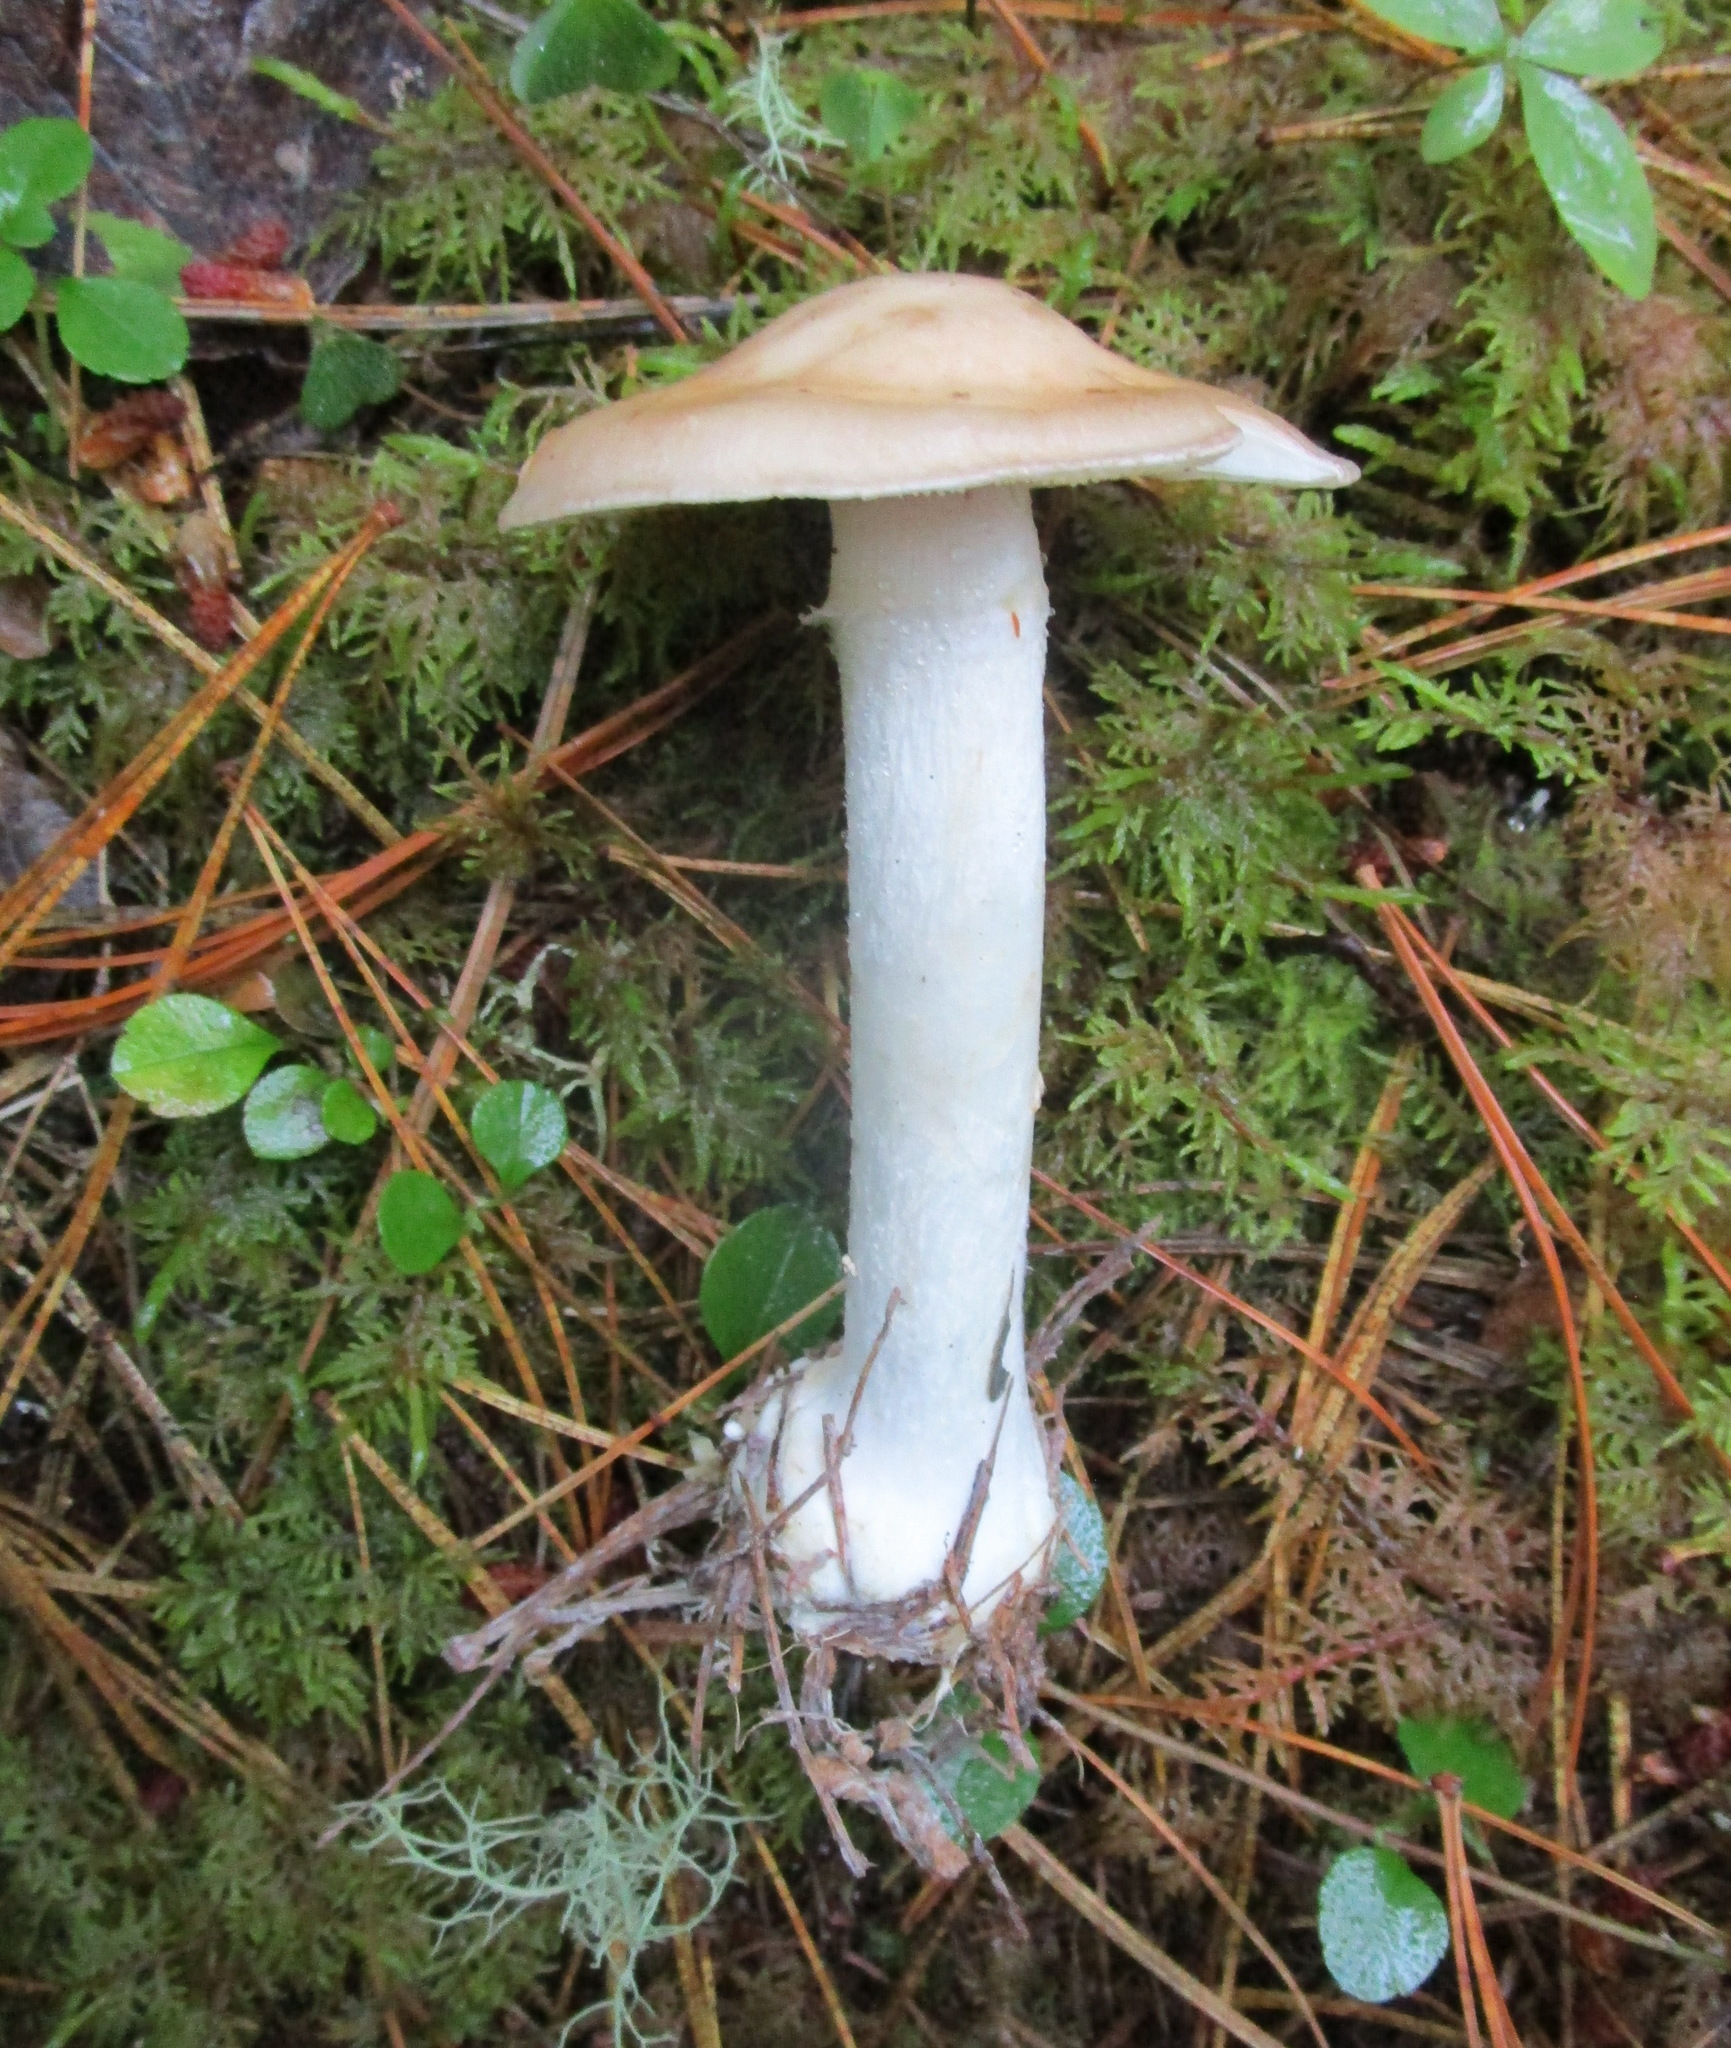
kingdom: Fungi
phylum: Basidiomycota
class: Agaricomycetes
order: Agaricales
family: Tricholomataceae
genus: Leucocortinarius
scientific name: Leucocortinarius bulbiger
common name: White webcap
